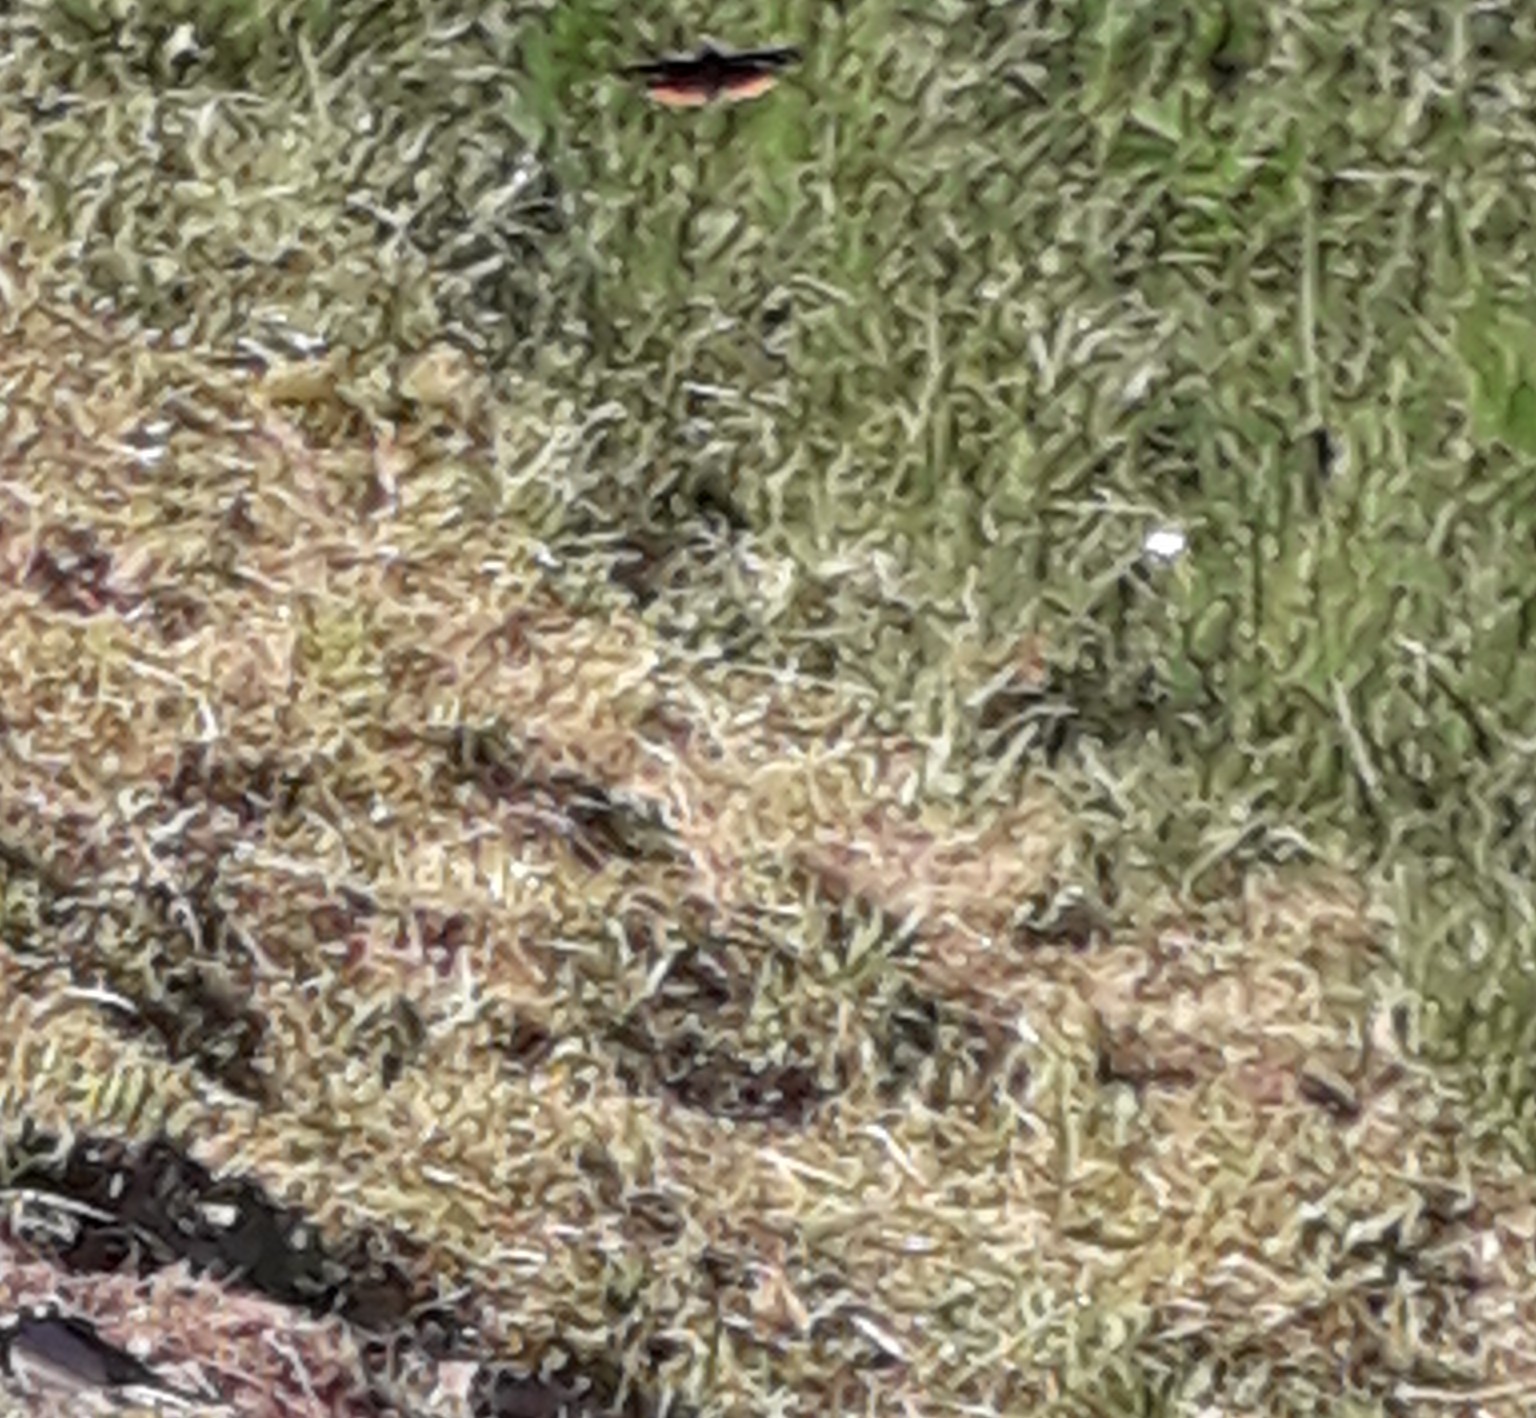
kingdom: Animalia
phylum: Arthropoda
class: Insecta
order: Lepidoptera
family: Nymphalidae
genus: Vanessa
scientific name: Vanessa atalanta
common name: Red admiral
